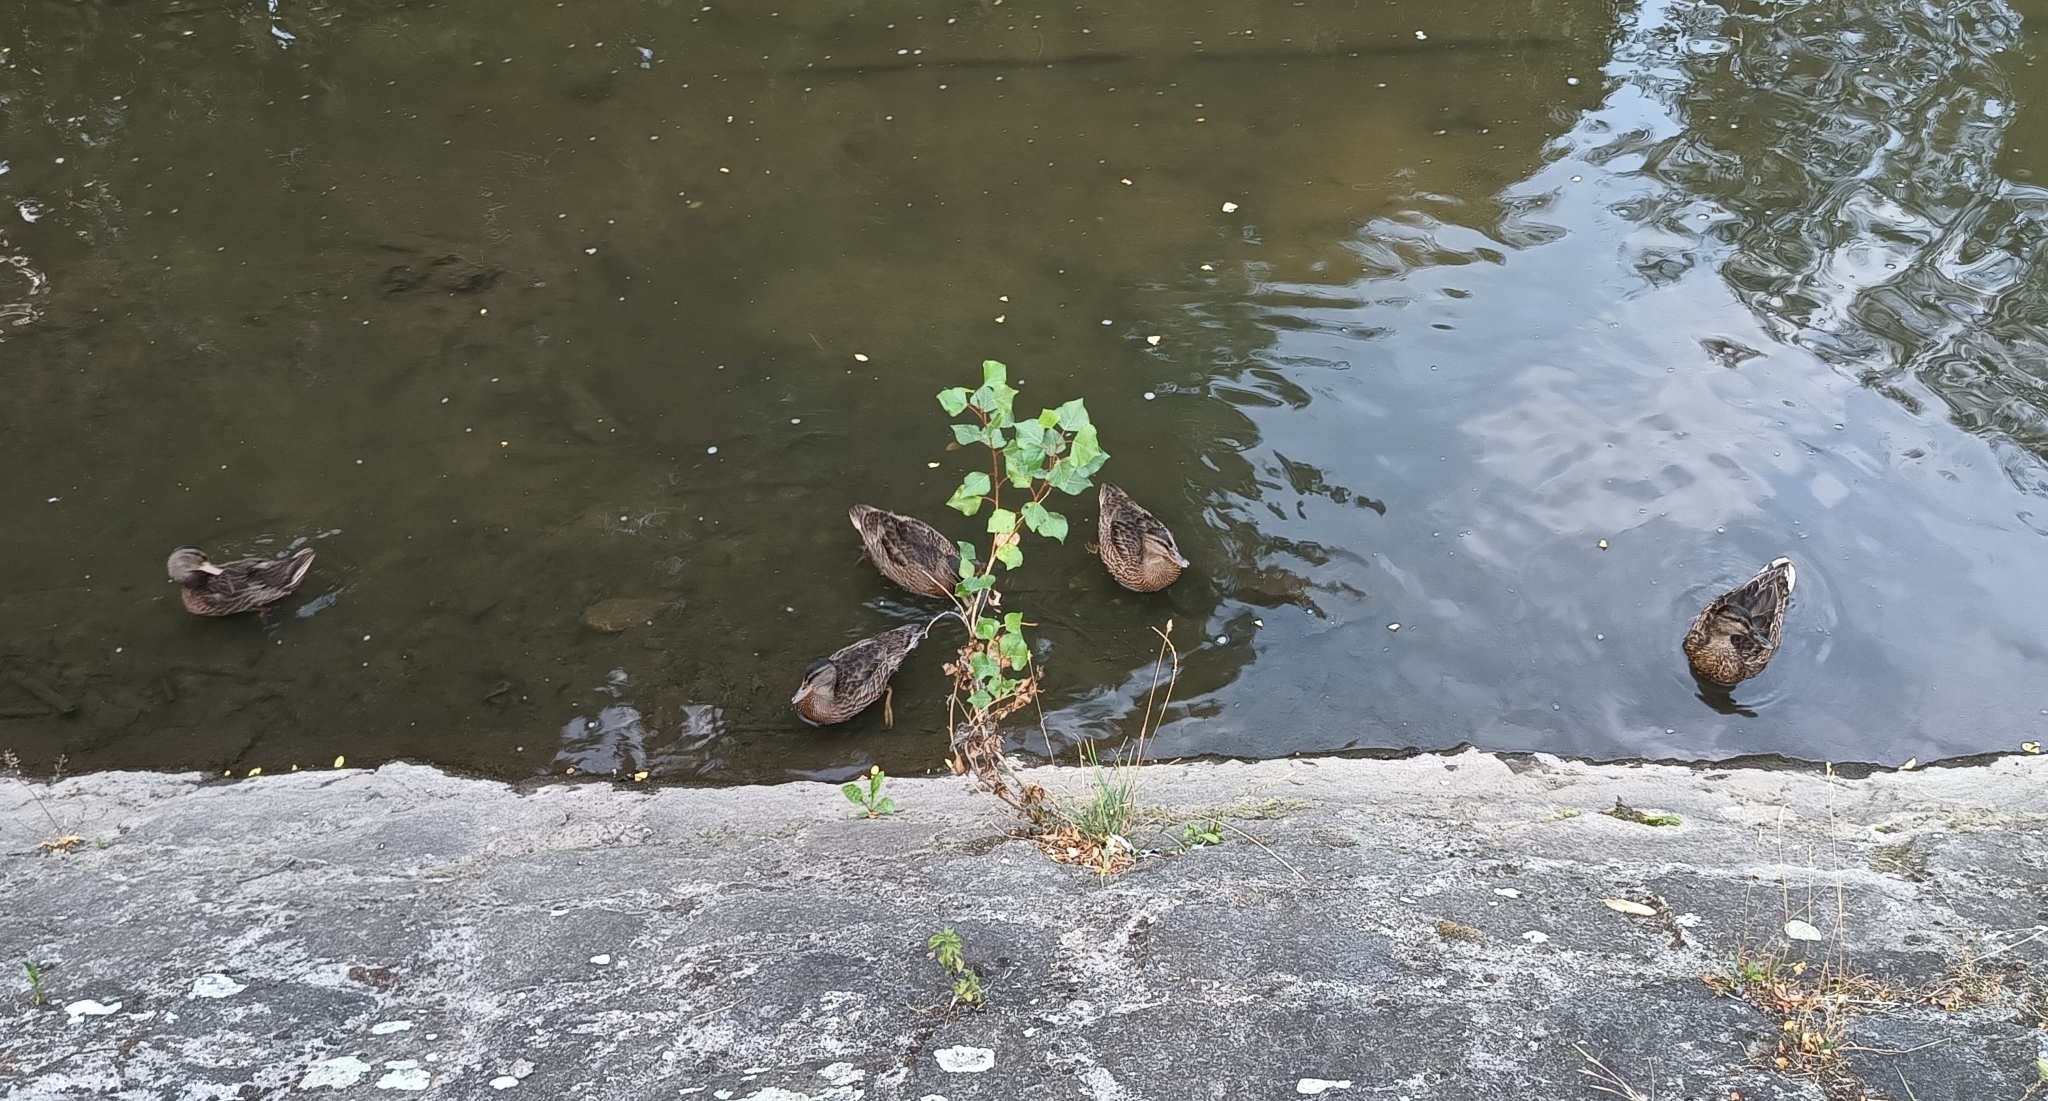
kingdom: Animalia
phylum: Chordata
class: Aves
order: Anseriformes
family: Anatidae
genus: Anas
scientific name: Anas platyrhynchos
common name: Mallard
